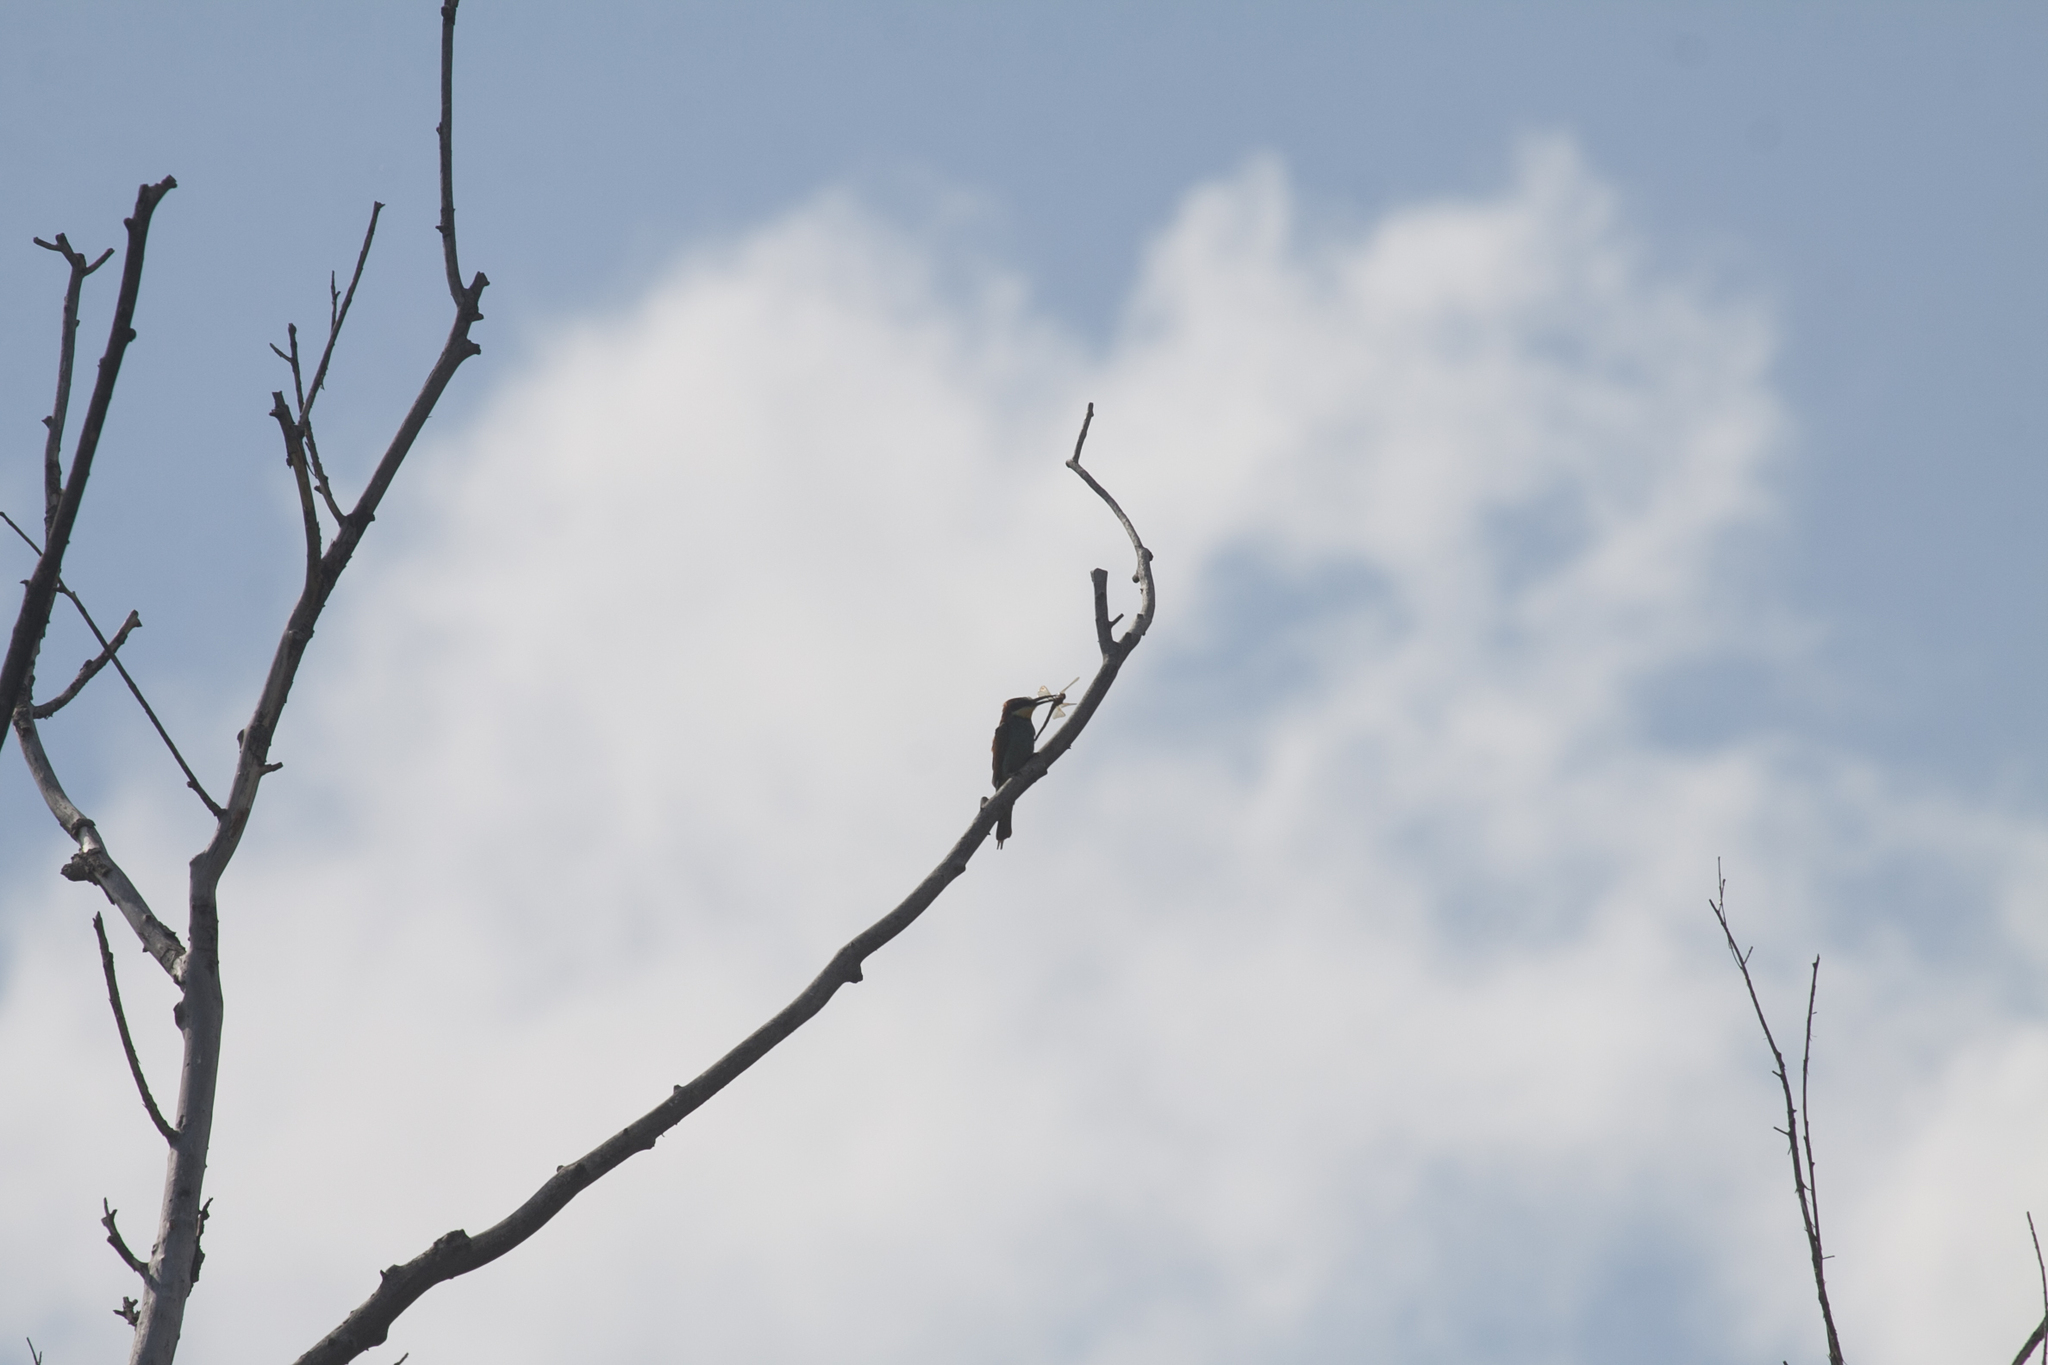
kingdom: Animalia
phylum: Chordata
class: Aves
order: Coraciiformes
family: Meropidae
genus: Merops
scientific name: Merops apiaster
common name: European bee-eater
